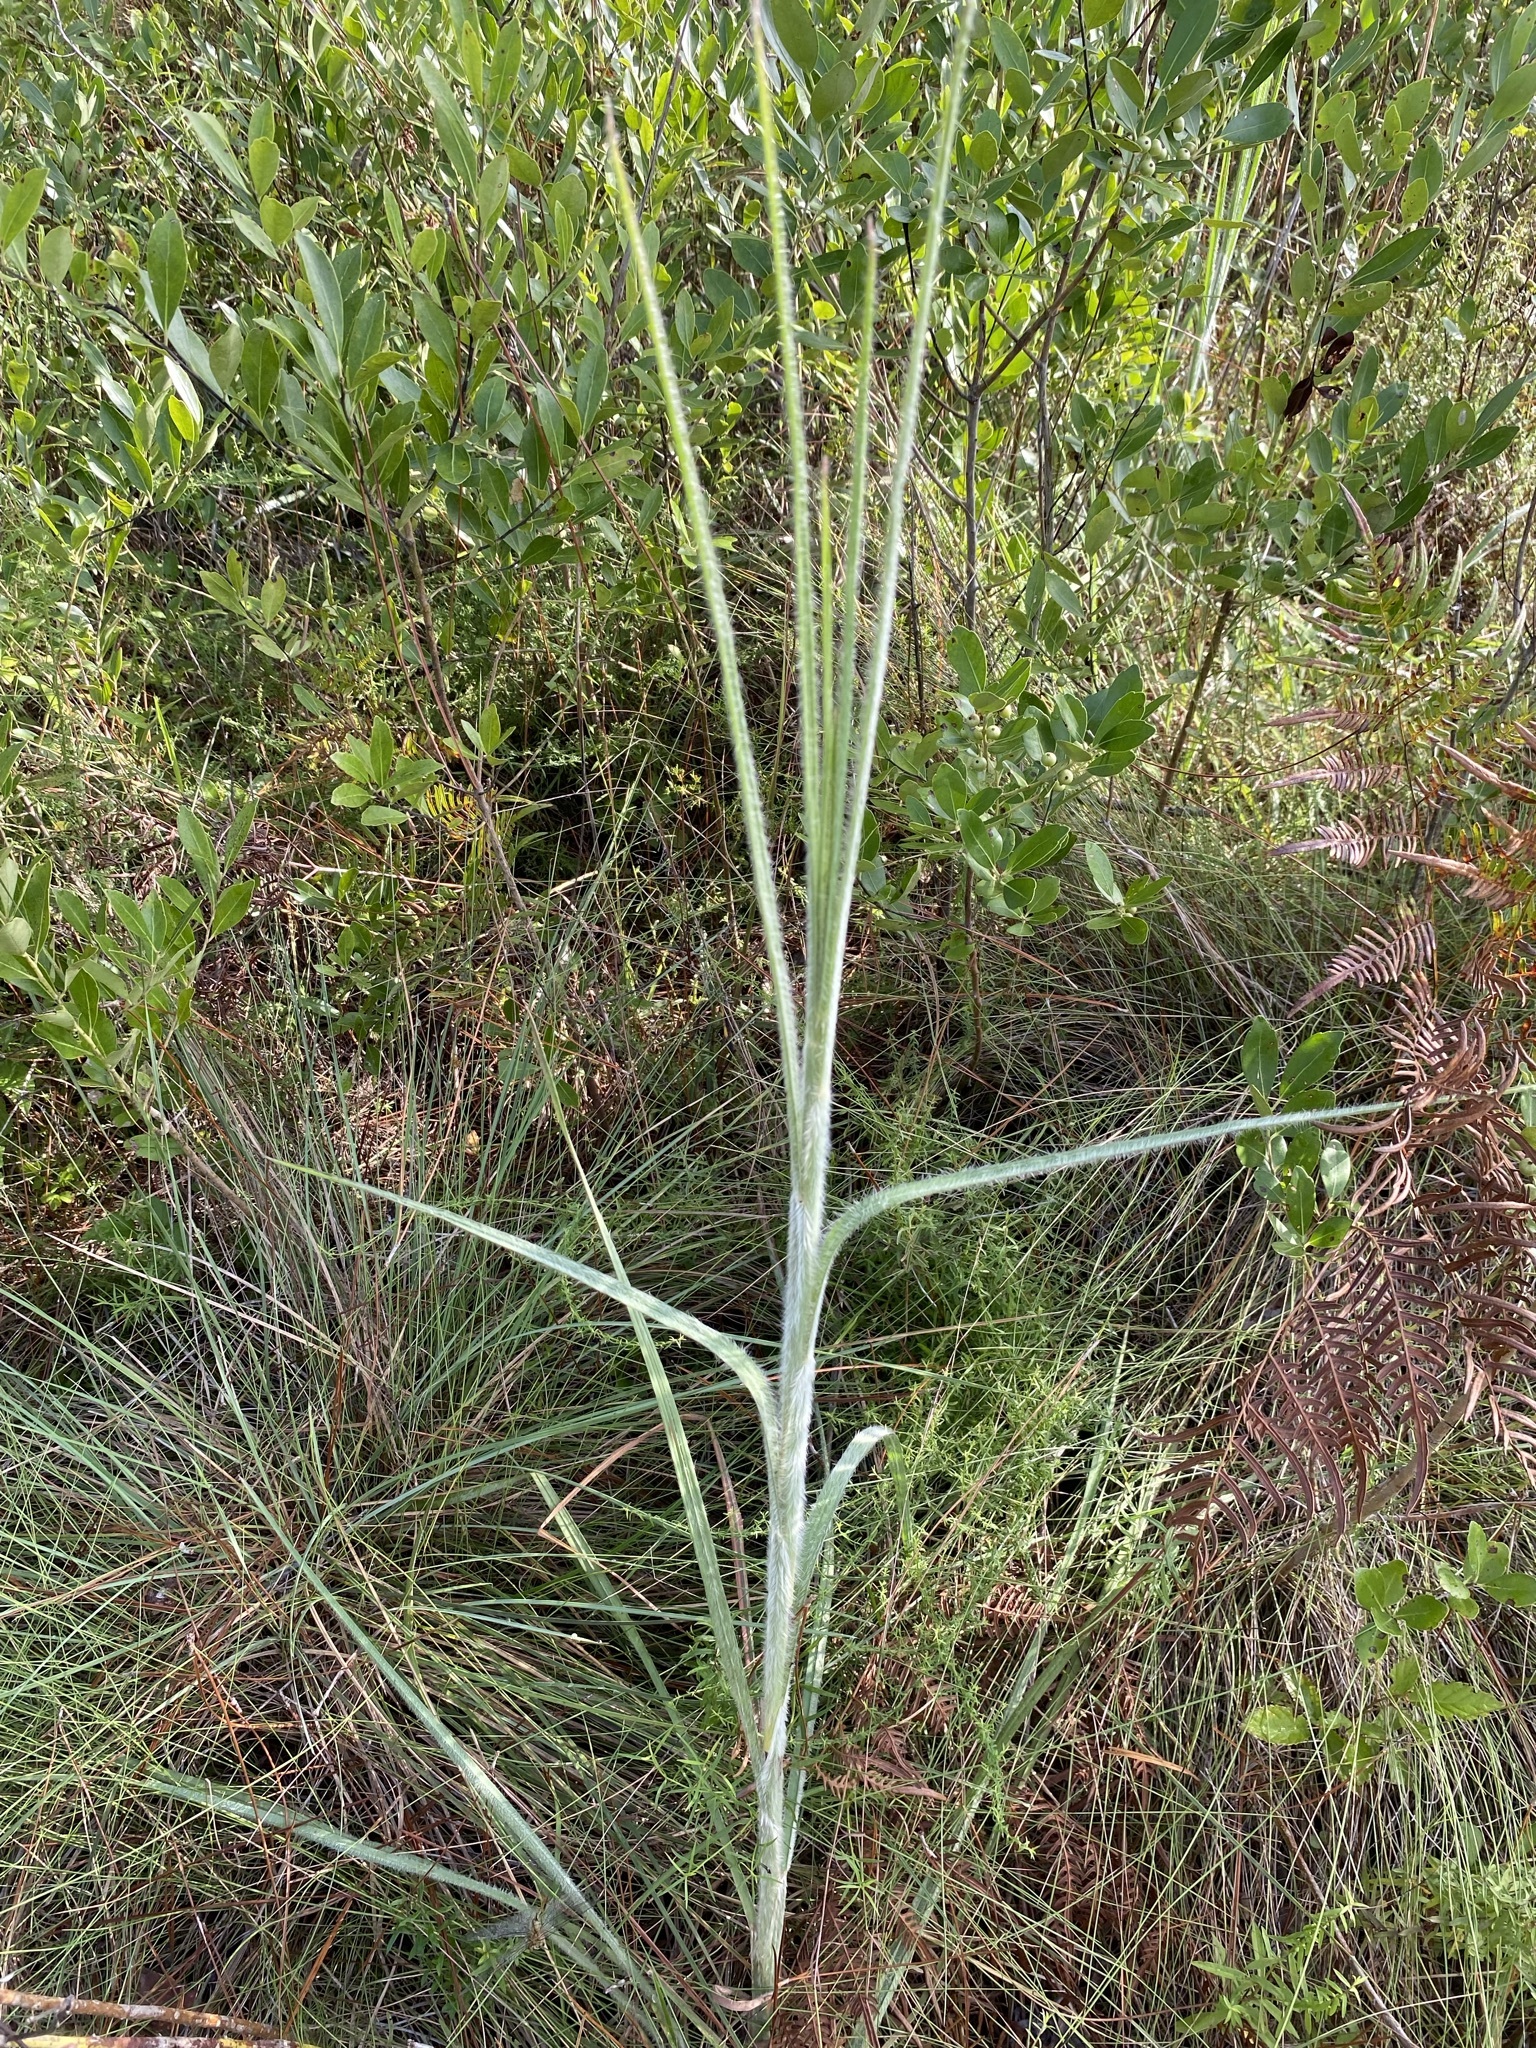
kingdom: Plantae
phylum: Tracheophyta
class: Liliopsida
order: Poales
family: Poaceae
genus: Andropogon
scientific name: Andropogon mohrii
